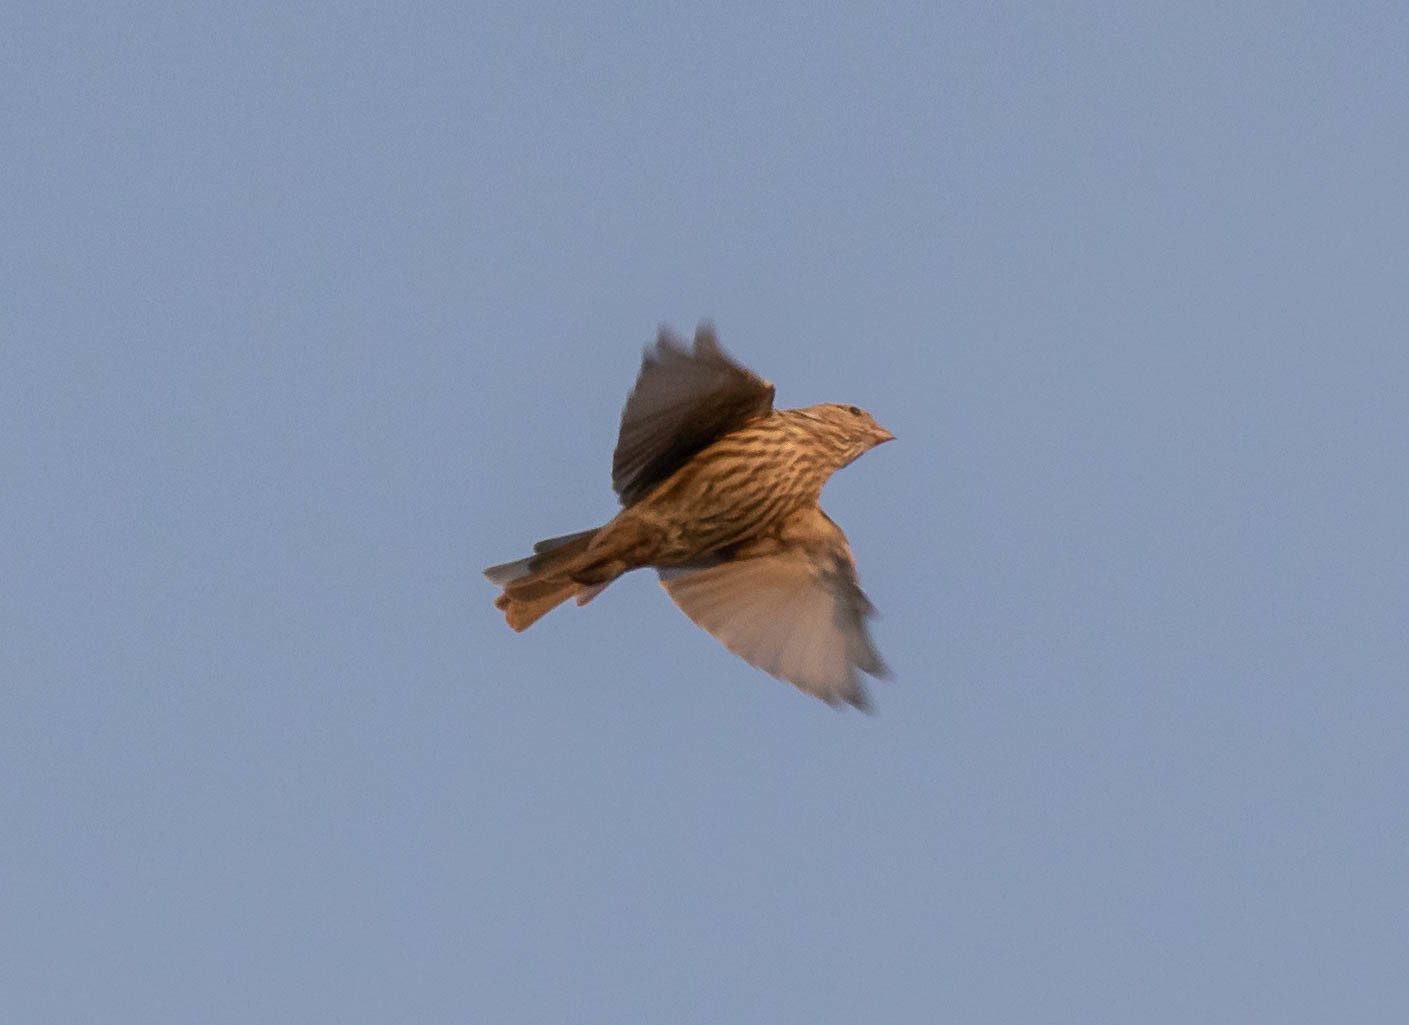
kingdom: Animalia
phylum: Chordata
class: Aves
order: Passeriformes
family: Fringillidae
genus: Haemorhous
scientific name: Haemorhous mexicanus
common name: House finch
